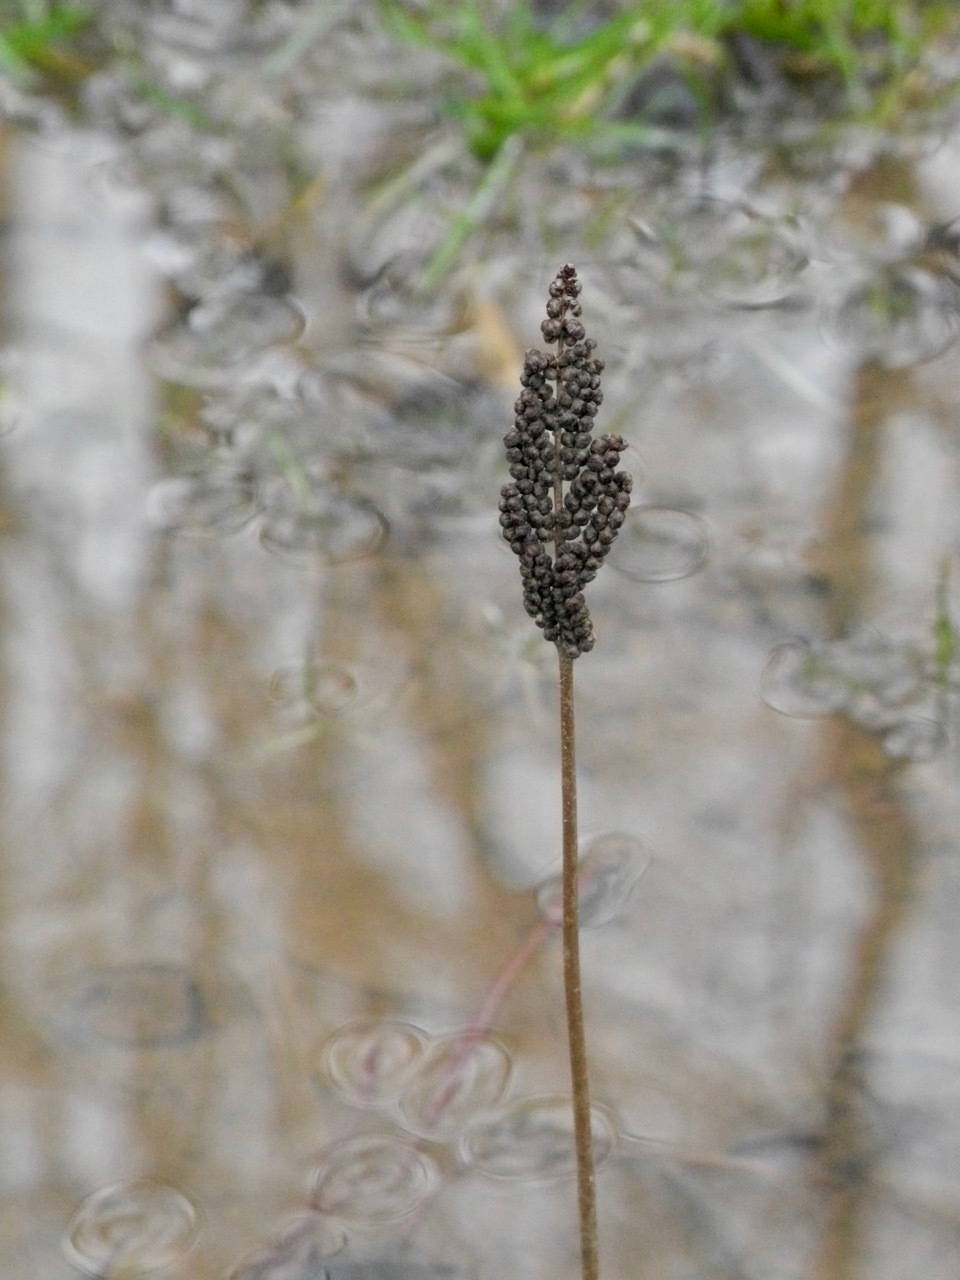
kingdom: Plantae
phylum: Tracheophyta
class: Polypodiopsida
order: Polypodiales
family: Onocleaceae
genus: Onoclea
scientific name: Onoclea sensibilis
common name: Sensitive fern
